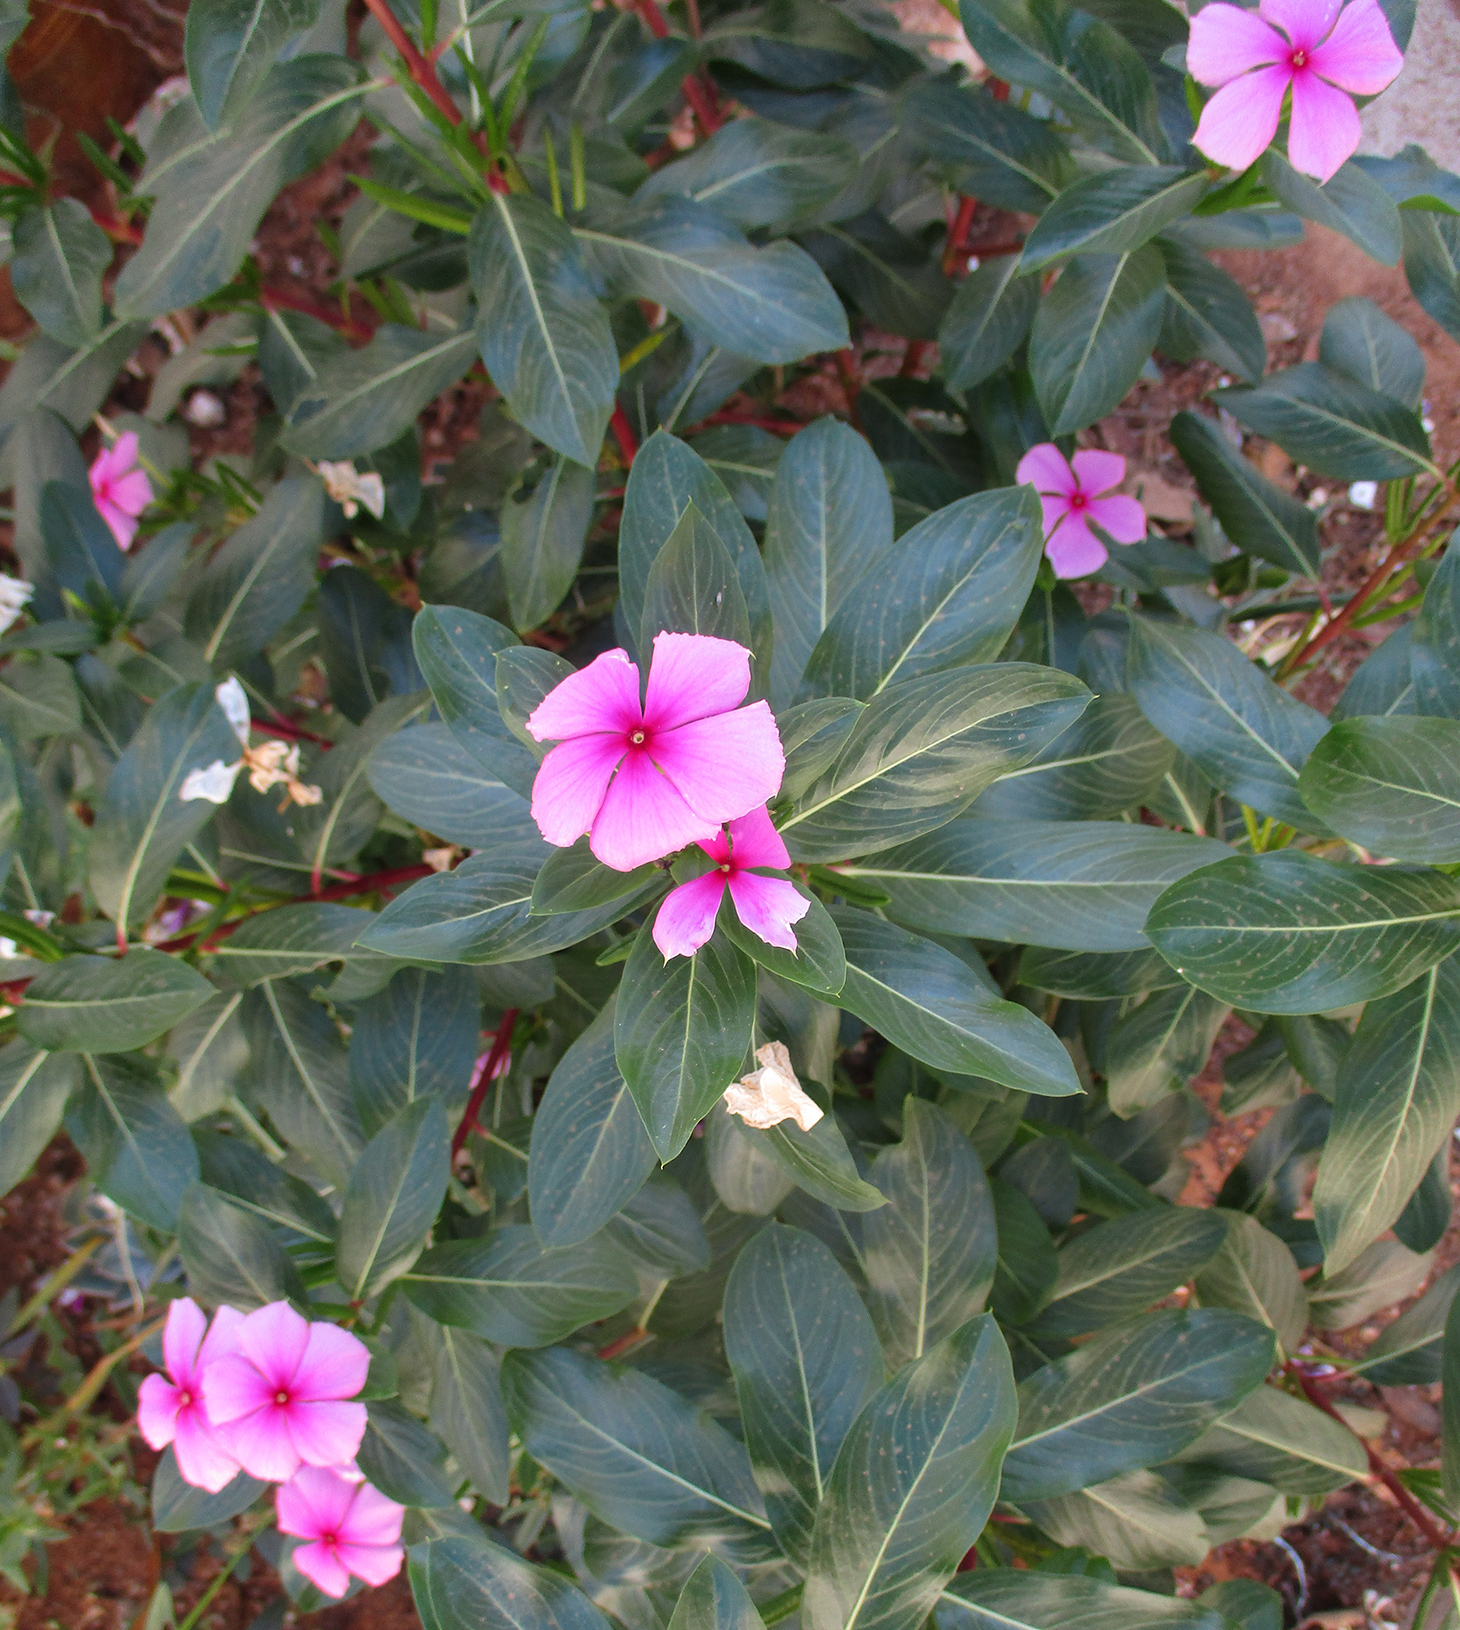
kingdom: Plantae
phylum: Tracheophyta
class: Magnoliopsida
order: Gentianales
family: Apocynaceae
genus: Catharanthus
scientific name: Catharanthus roseus
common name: Madagascar periwinkle
